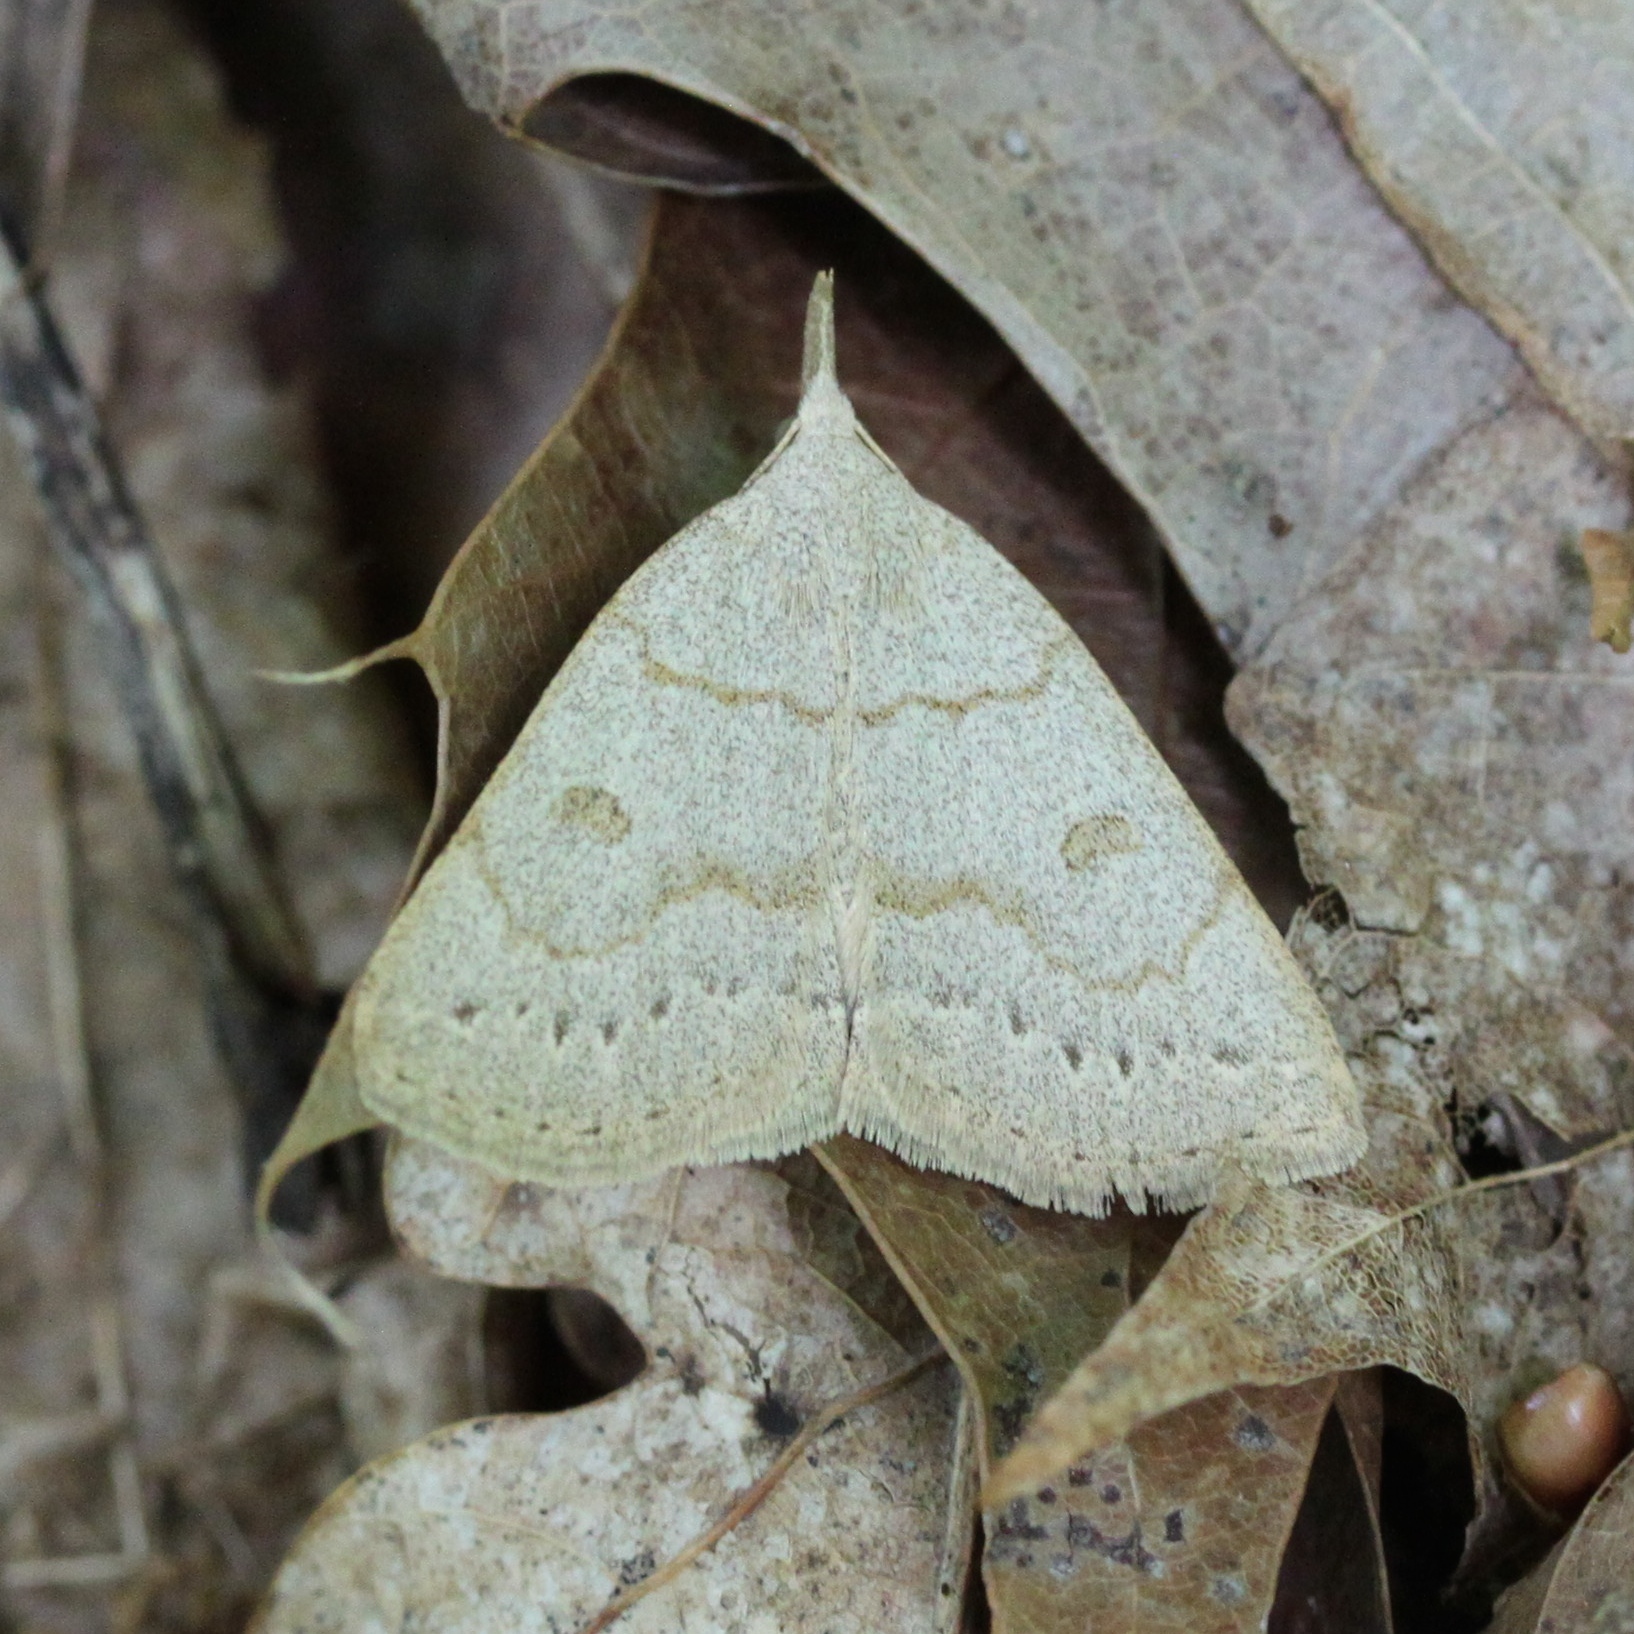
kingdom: Animalia
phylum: Arthropoda
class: Insecta
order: Lepidoptera
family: Erebidae
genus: Macrochilo
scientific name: Macrochilo morbidalis
